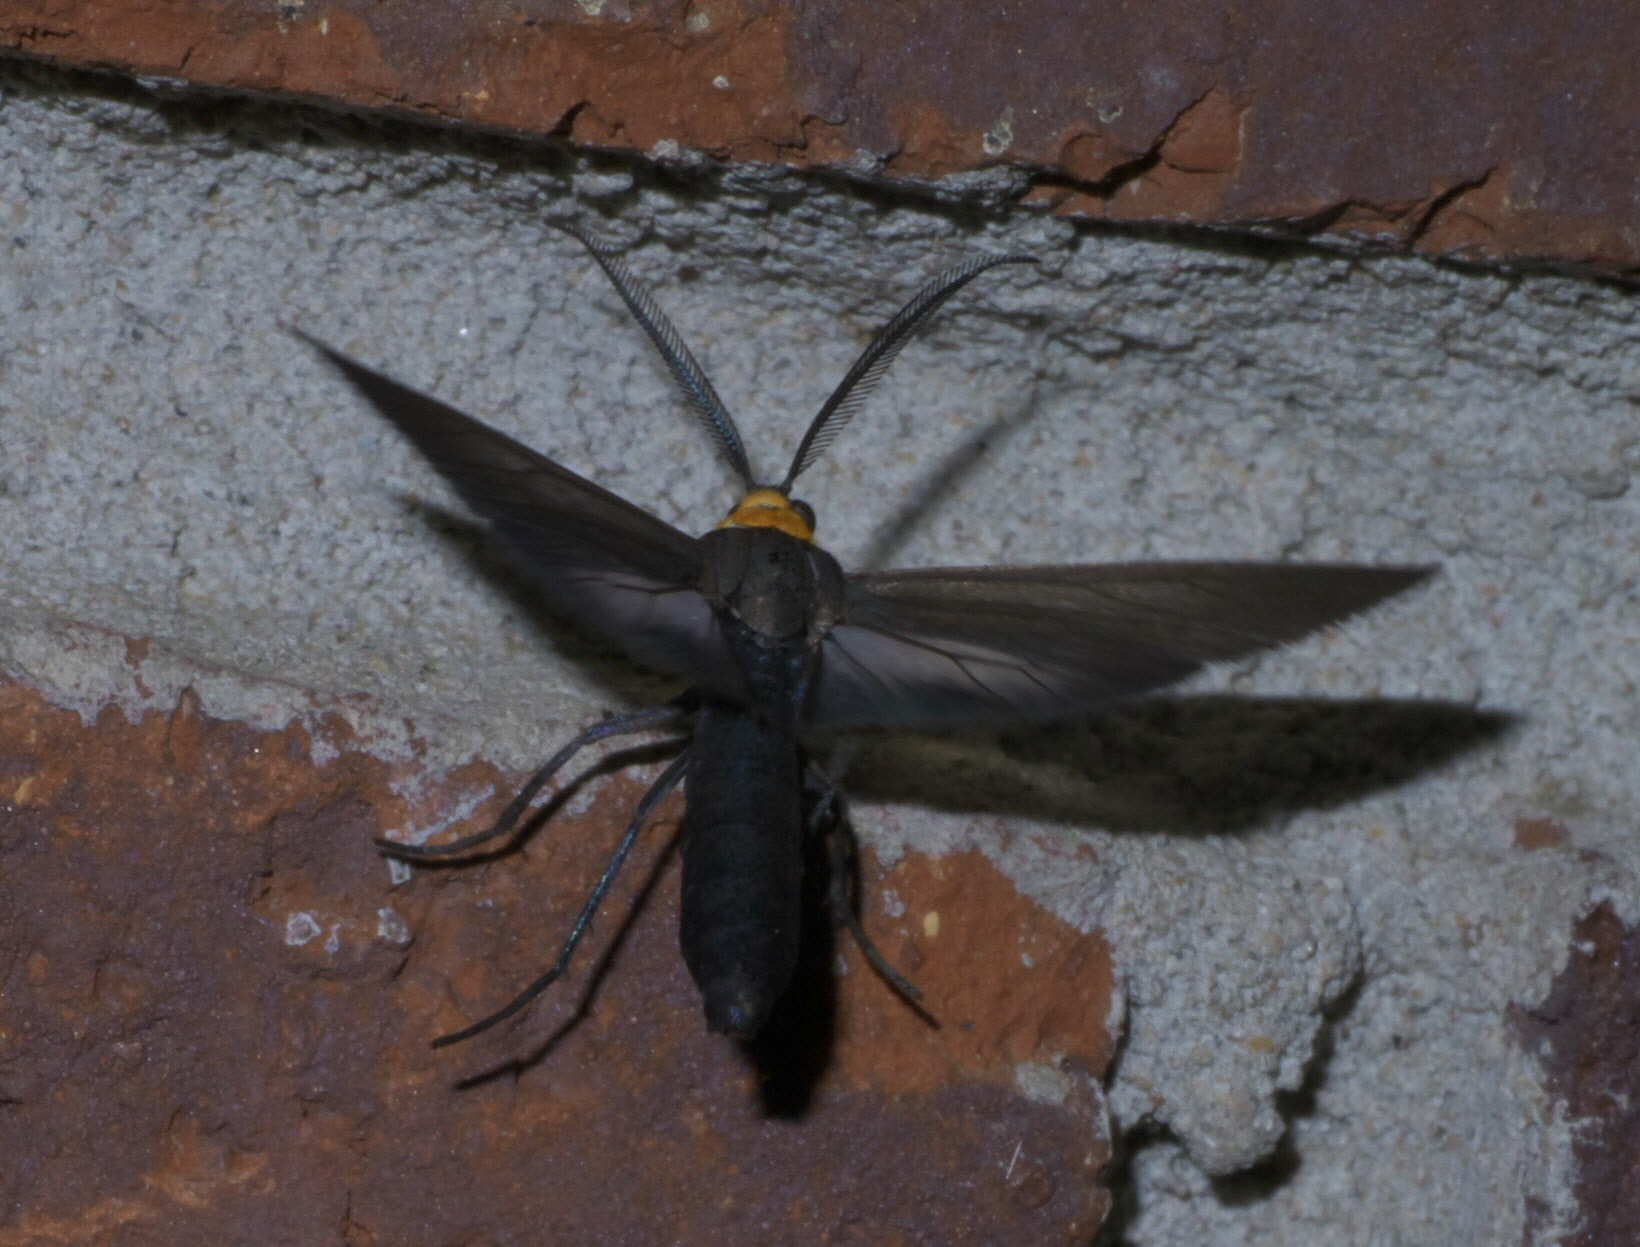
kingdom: Animalia
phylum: Arthropoda
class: Insecta
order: Lepidoptera
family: Erebidae
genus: Cisseps
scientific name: Cisseps fulvicollis
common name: Yellow-collared scape moth
